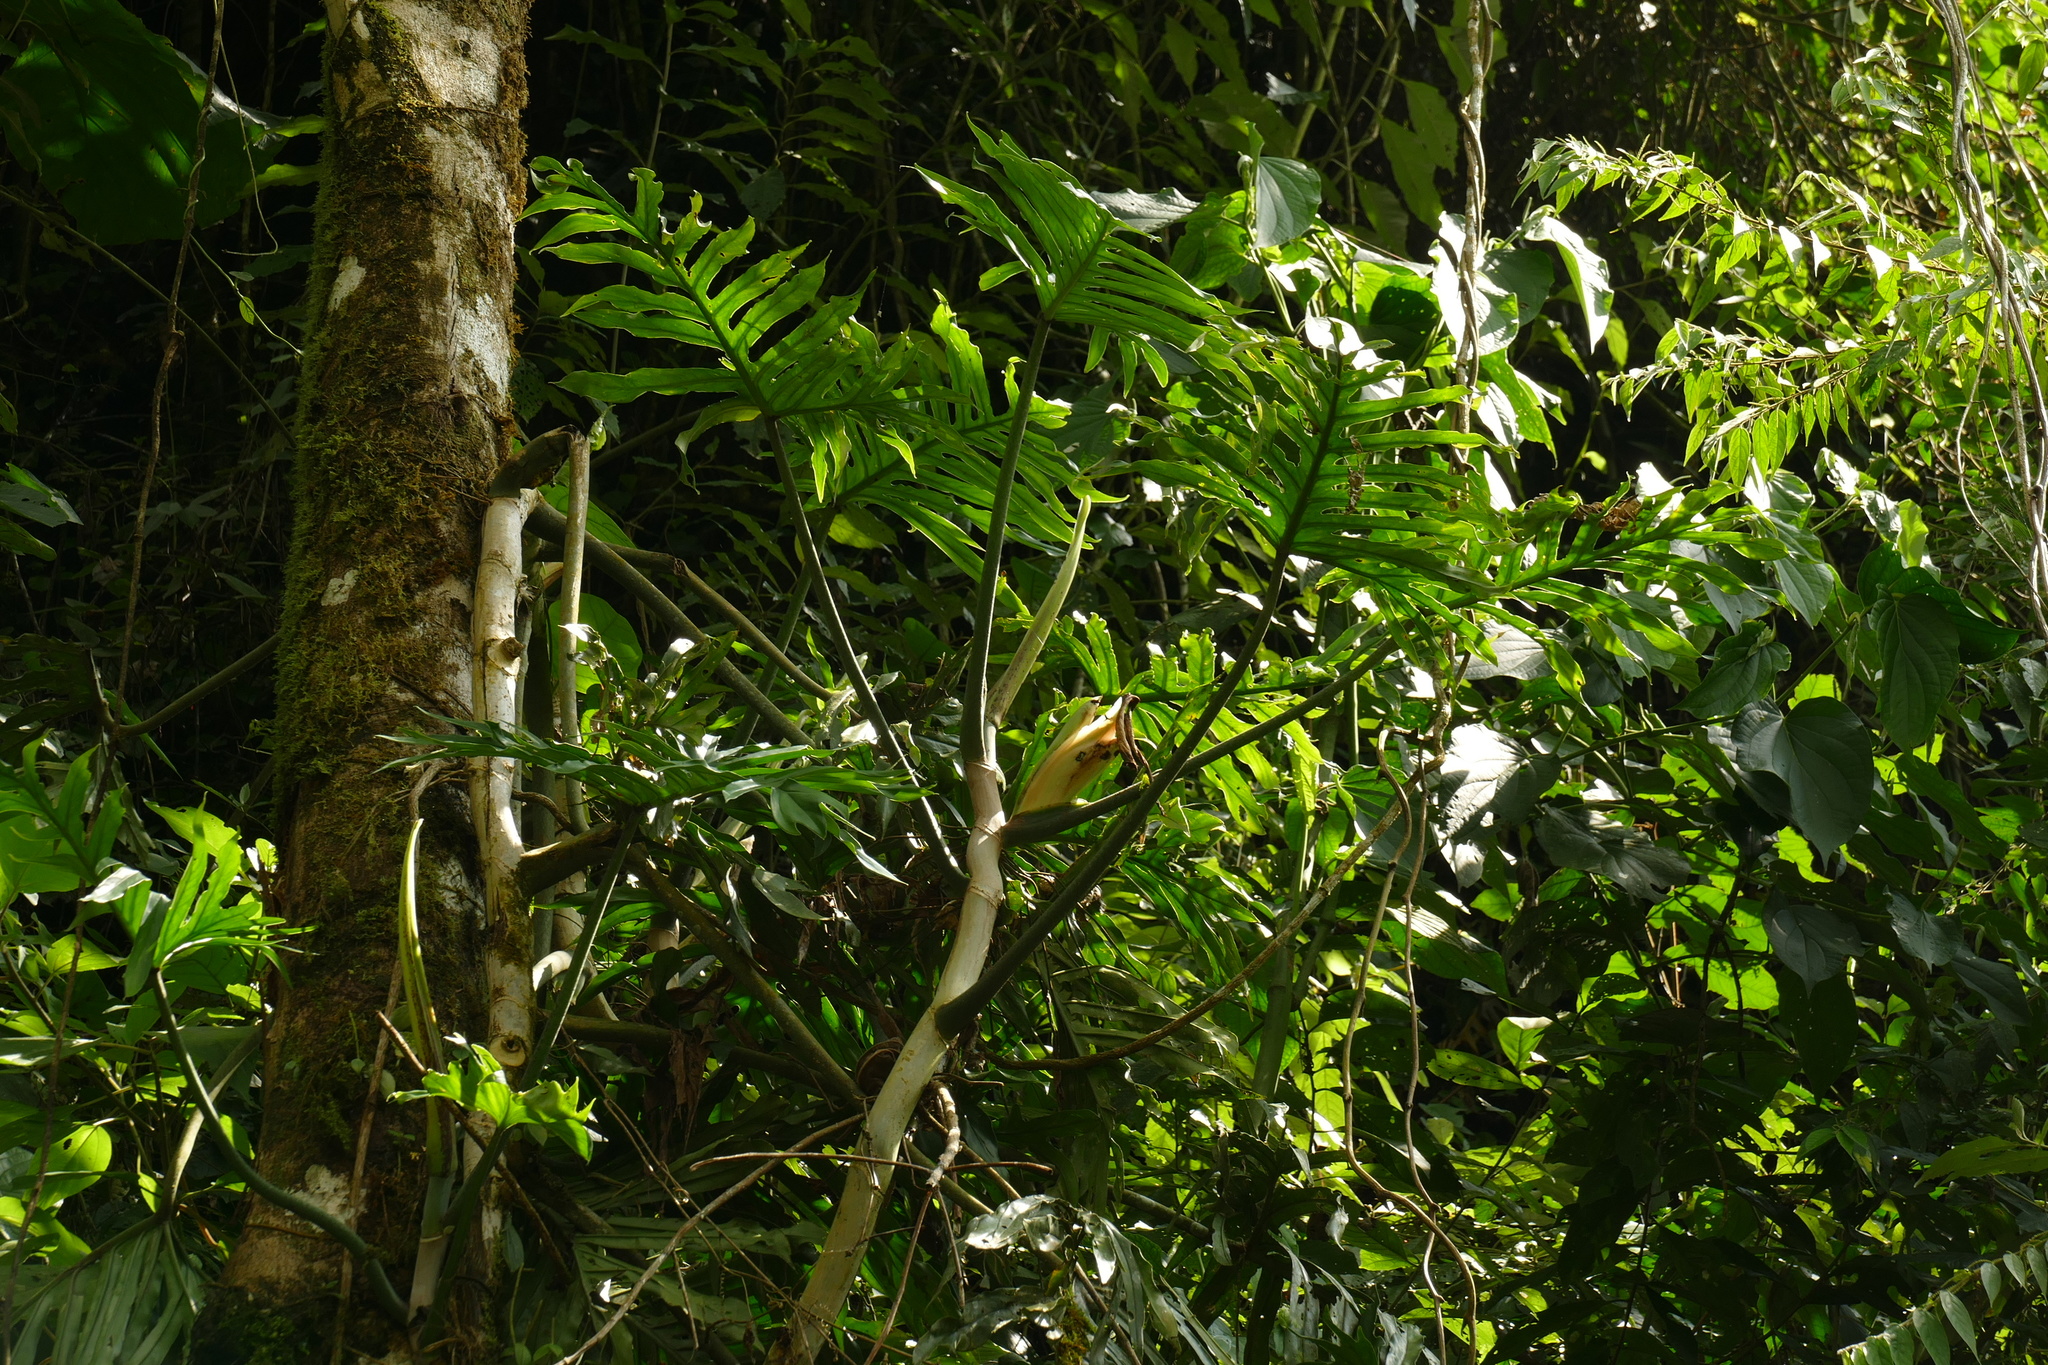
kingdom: Plantae
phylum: Tracheophyta
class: Liliopsida
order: Alismatales
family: Araceae
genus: Philodendron
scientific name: Philodendron elegans
